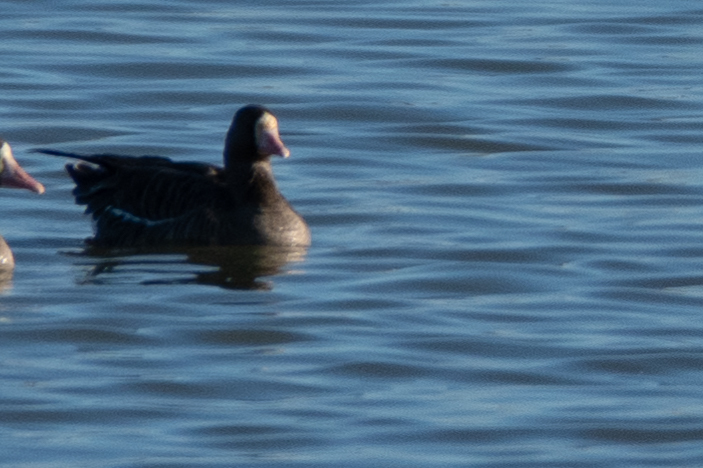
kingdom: Animalia
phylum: Chordata
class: Aves
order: Anseriformes
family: Anatidae
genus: Anser
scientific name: Anser albifrons
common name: Greater white-fronted goose
